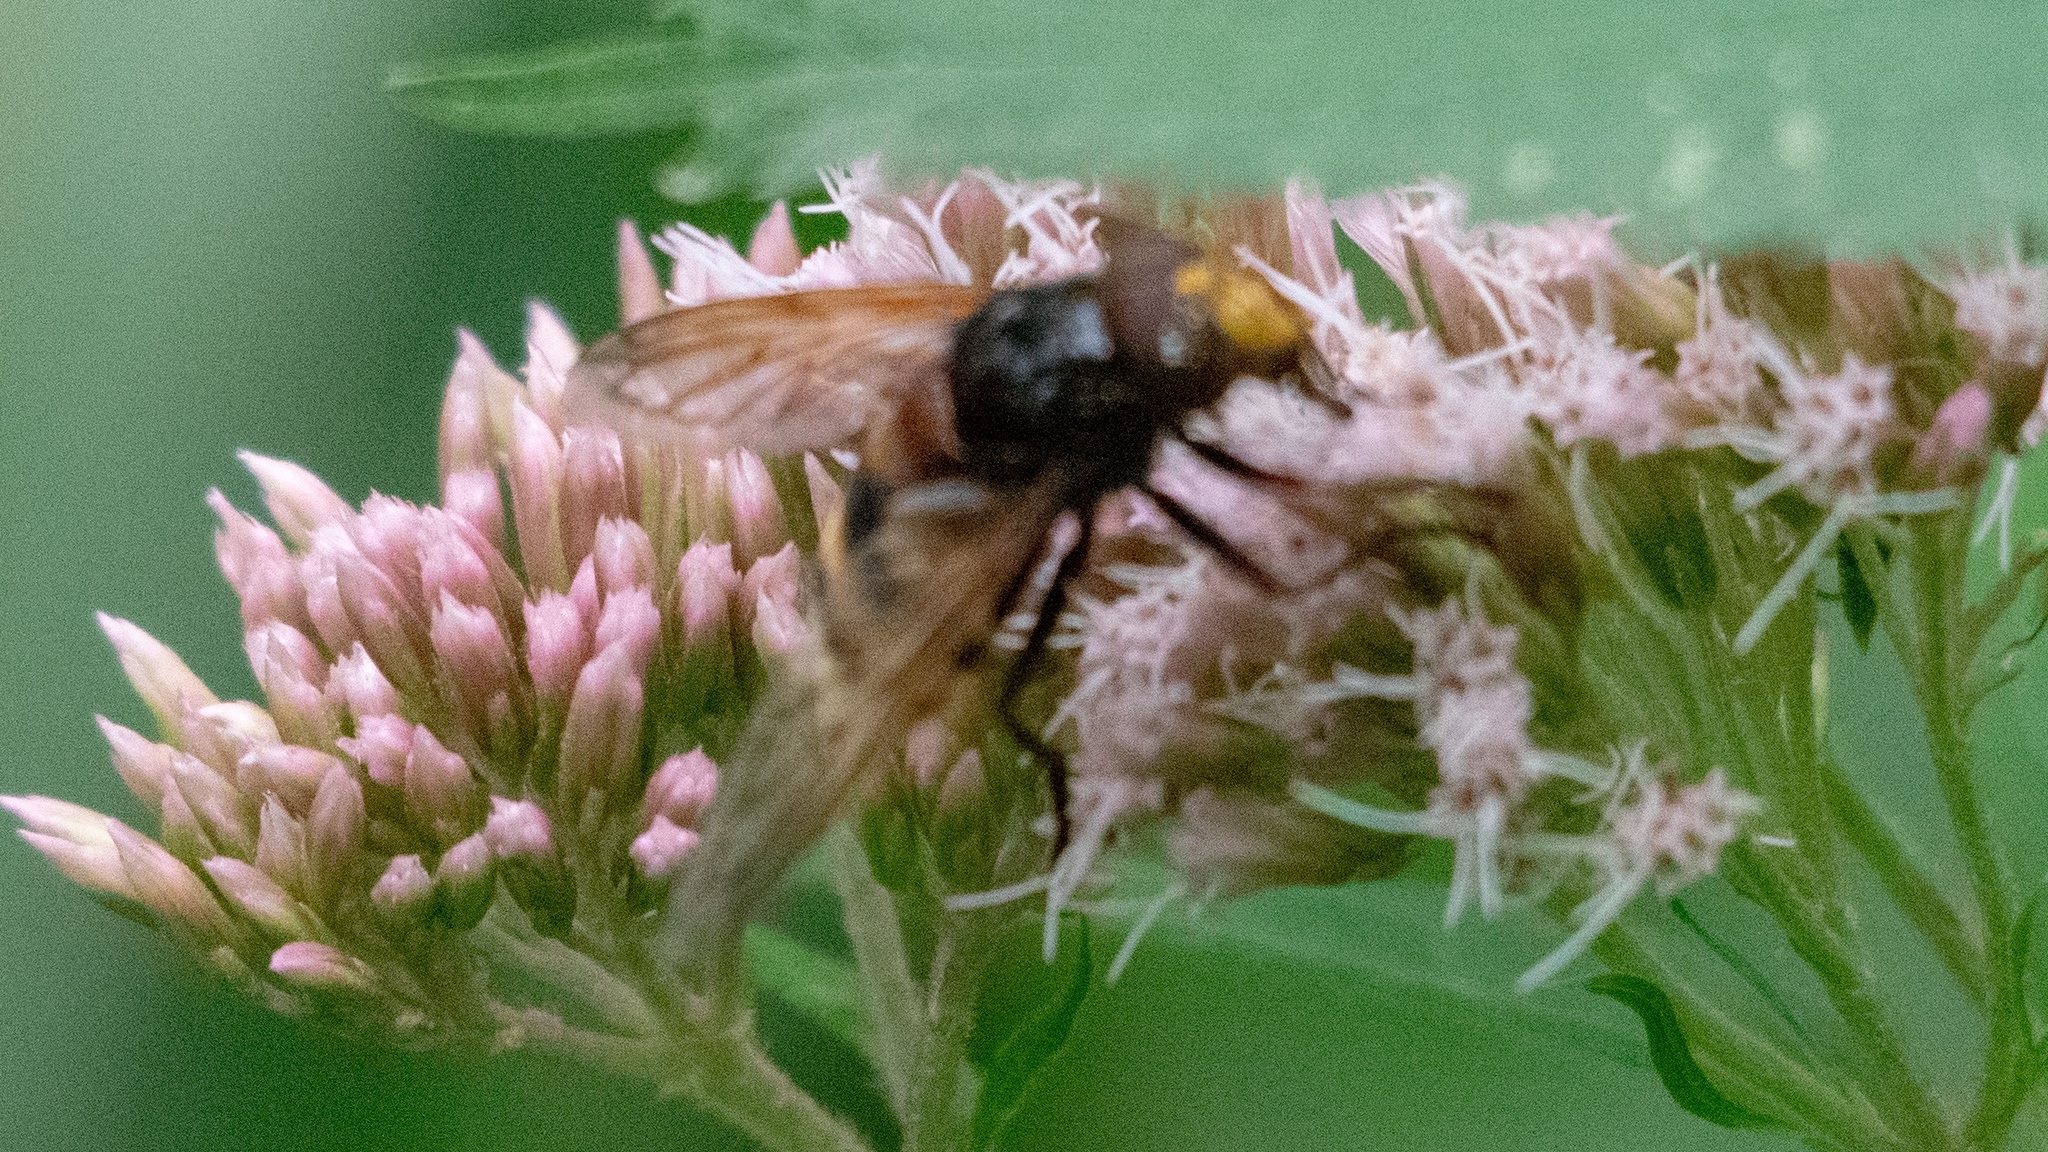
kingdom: Animalia
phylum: Arthropoda
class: Insecta
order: Diptera
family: Syrphidae
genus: Volucella
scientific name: Volucella zonaria
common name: Hornet hoverfly
